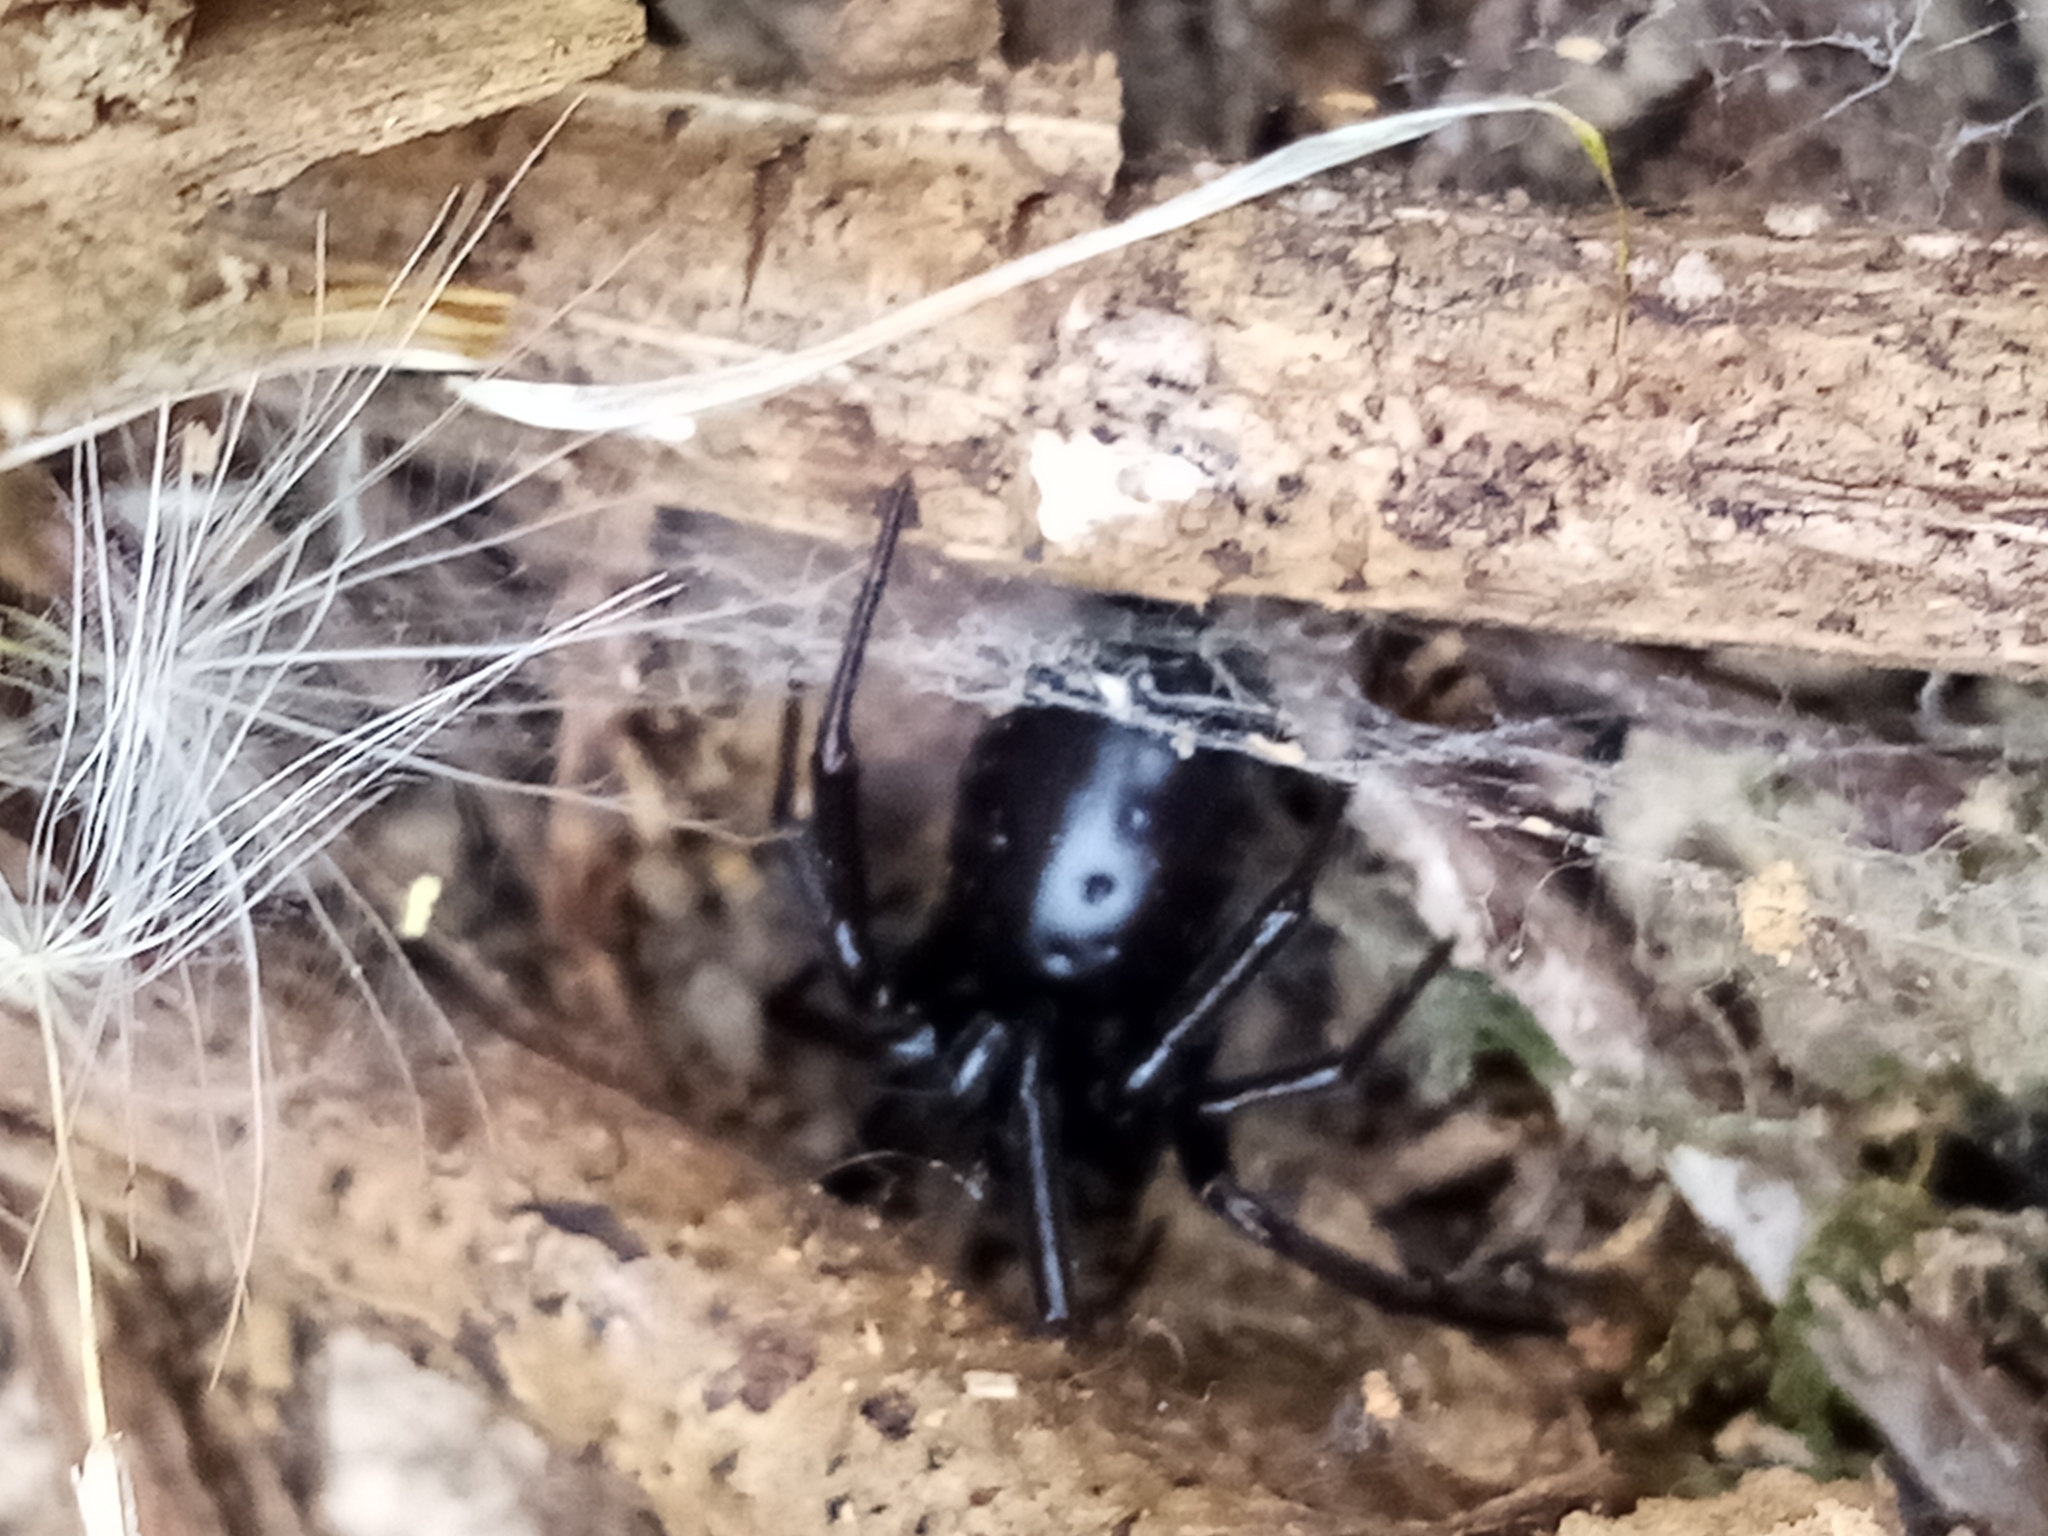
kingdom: Animalia
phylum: Arthropoda
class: Arachnida
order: Araneae
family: Theridiidae
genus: Steatoda
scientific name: Steatoda capensis
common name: Cobweb weaver
